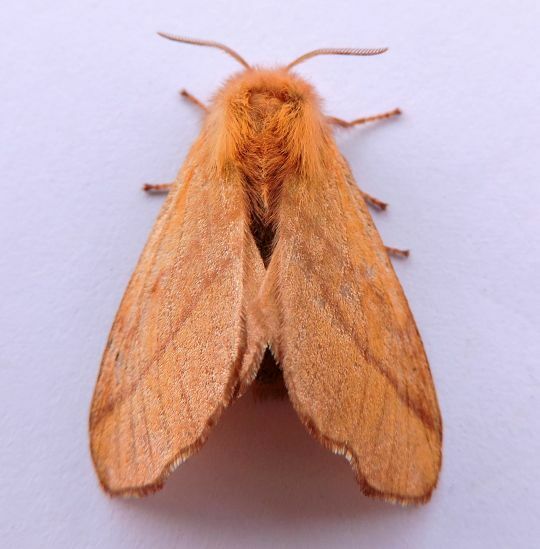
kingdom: Animalia
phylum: Arthropoda
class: Insecta
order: Lepidoptera
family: Lasiocampidae
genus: Malacosoma
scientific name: Malacosoma disstria
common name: Forest tent caterpillar
